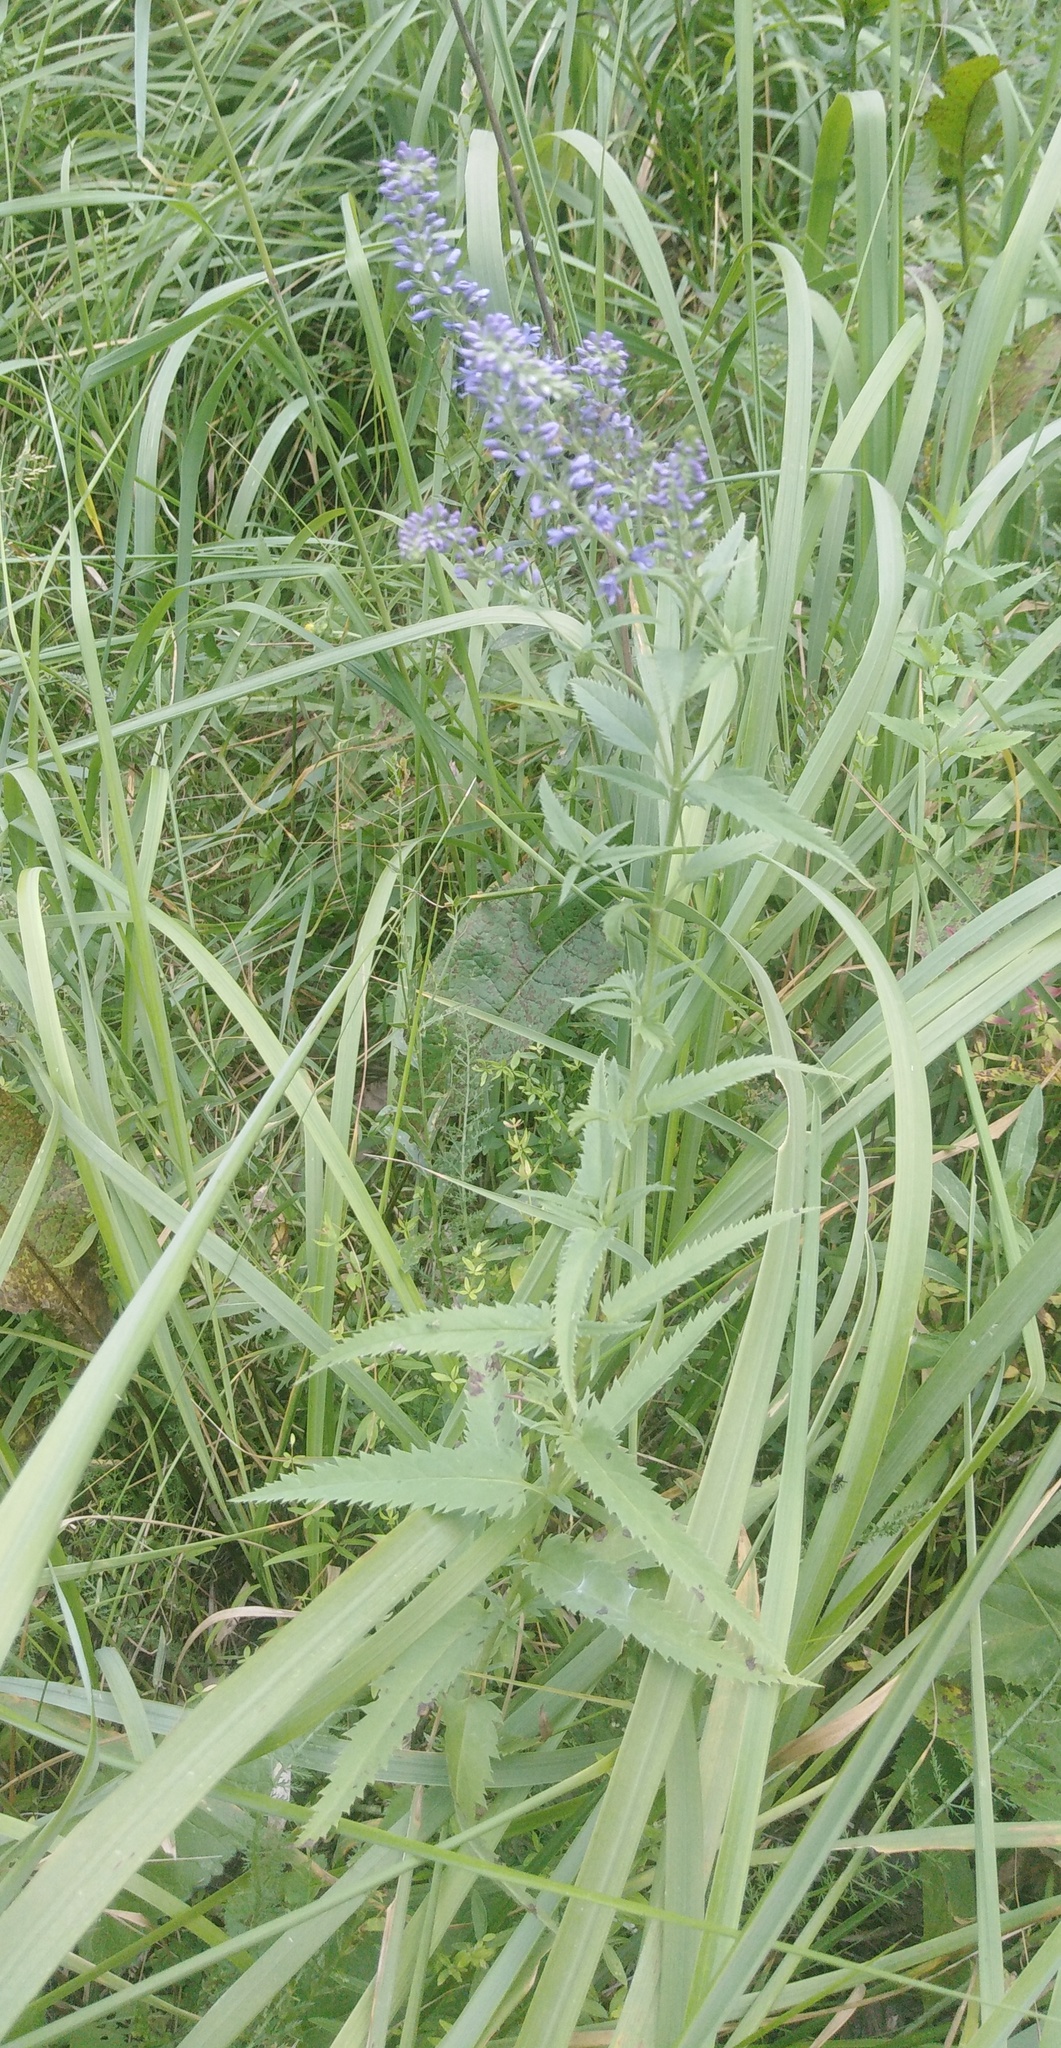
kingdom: Plantae
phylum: Tracheophyta
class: Magnoliopsida
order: Lamiales
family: Plantaginaceae
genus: Veronica
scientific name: Veronica longifolia
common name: Garden speedwell
